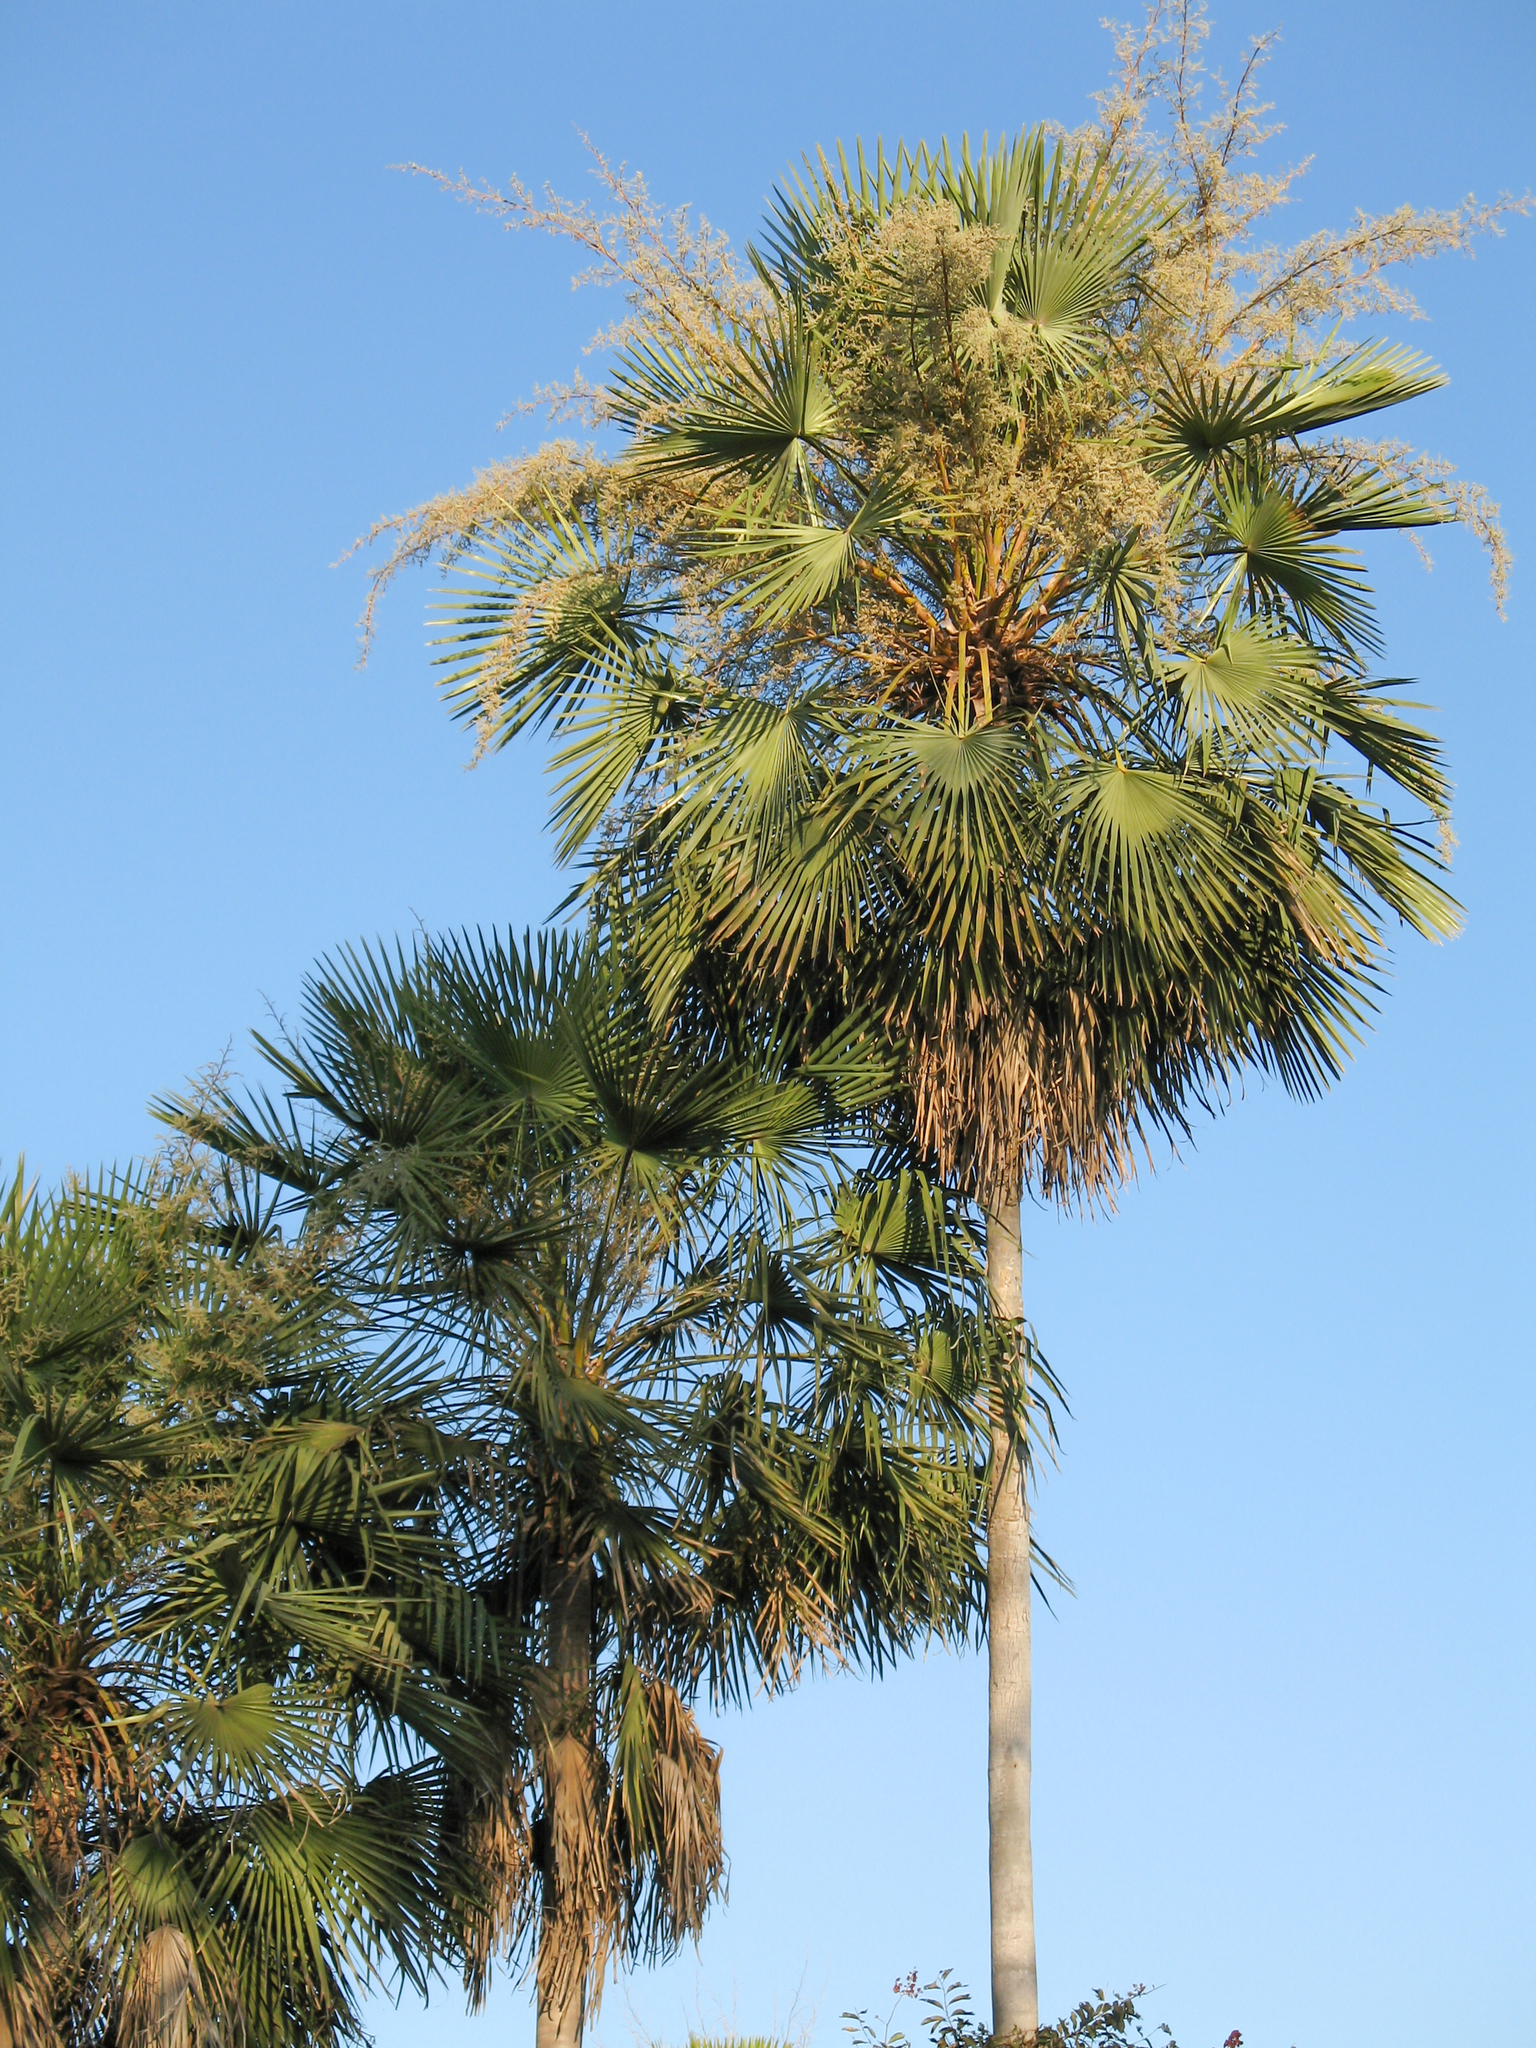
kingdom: Plantae
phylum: Tracheophyta
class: Liliopsida
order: Arecales
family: Arecaceae
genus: Copernicia
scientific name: Copernicia alba
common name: Caranday palm
